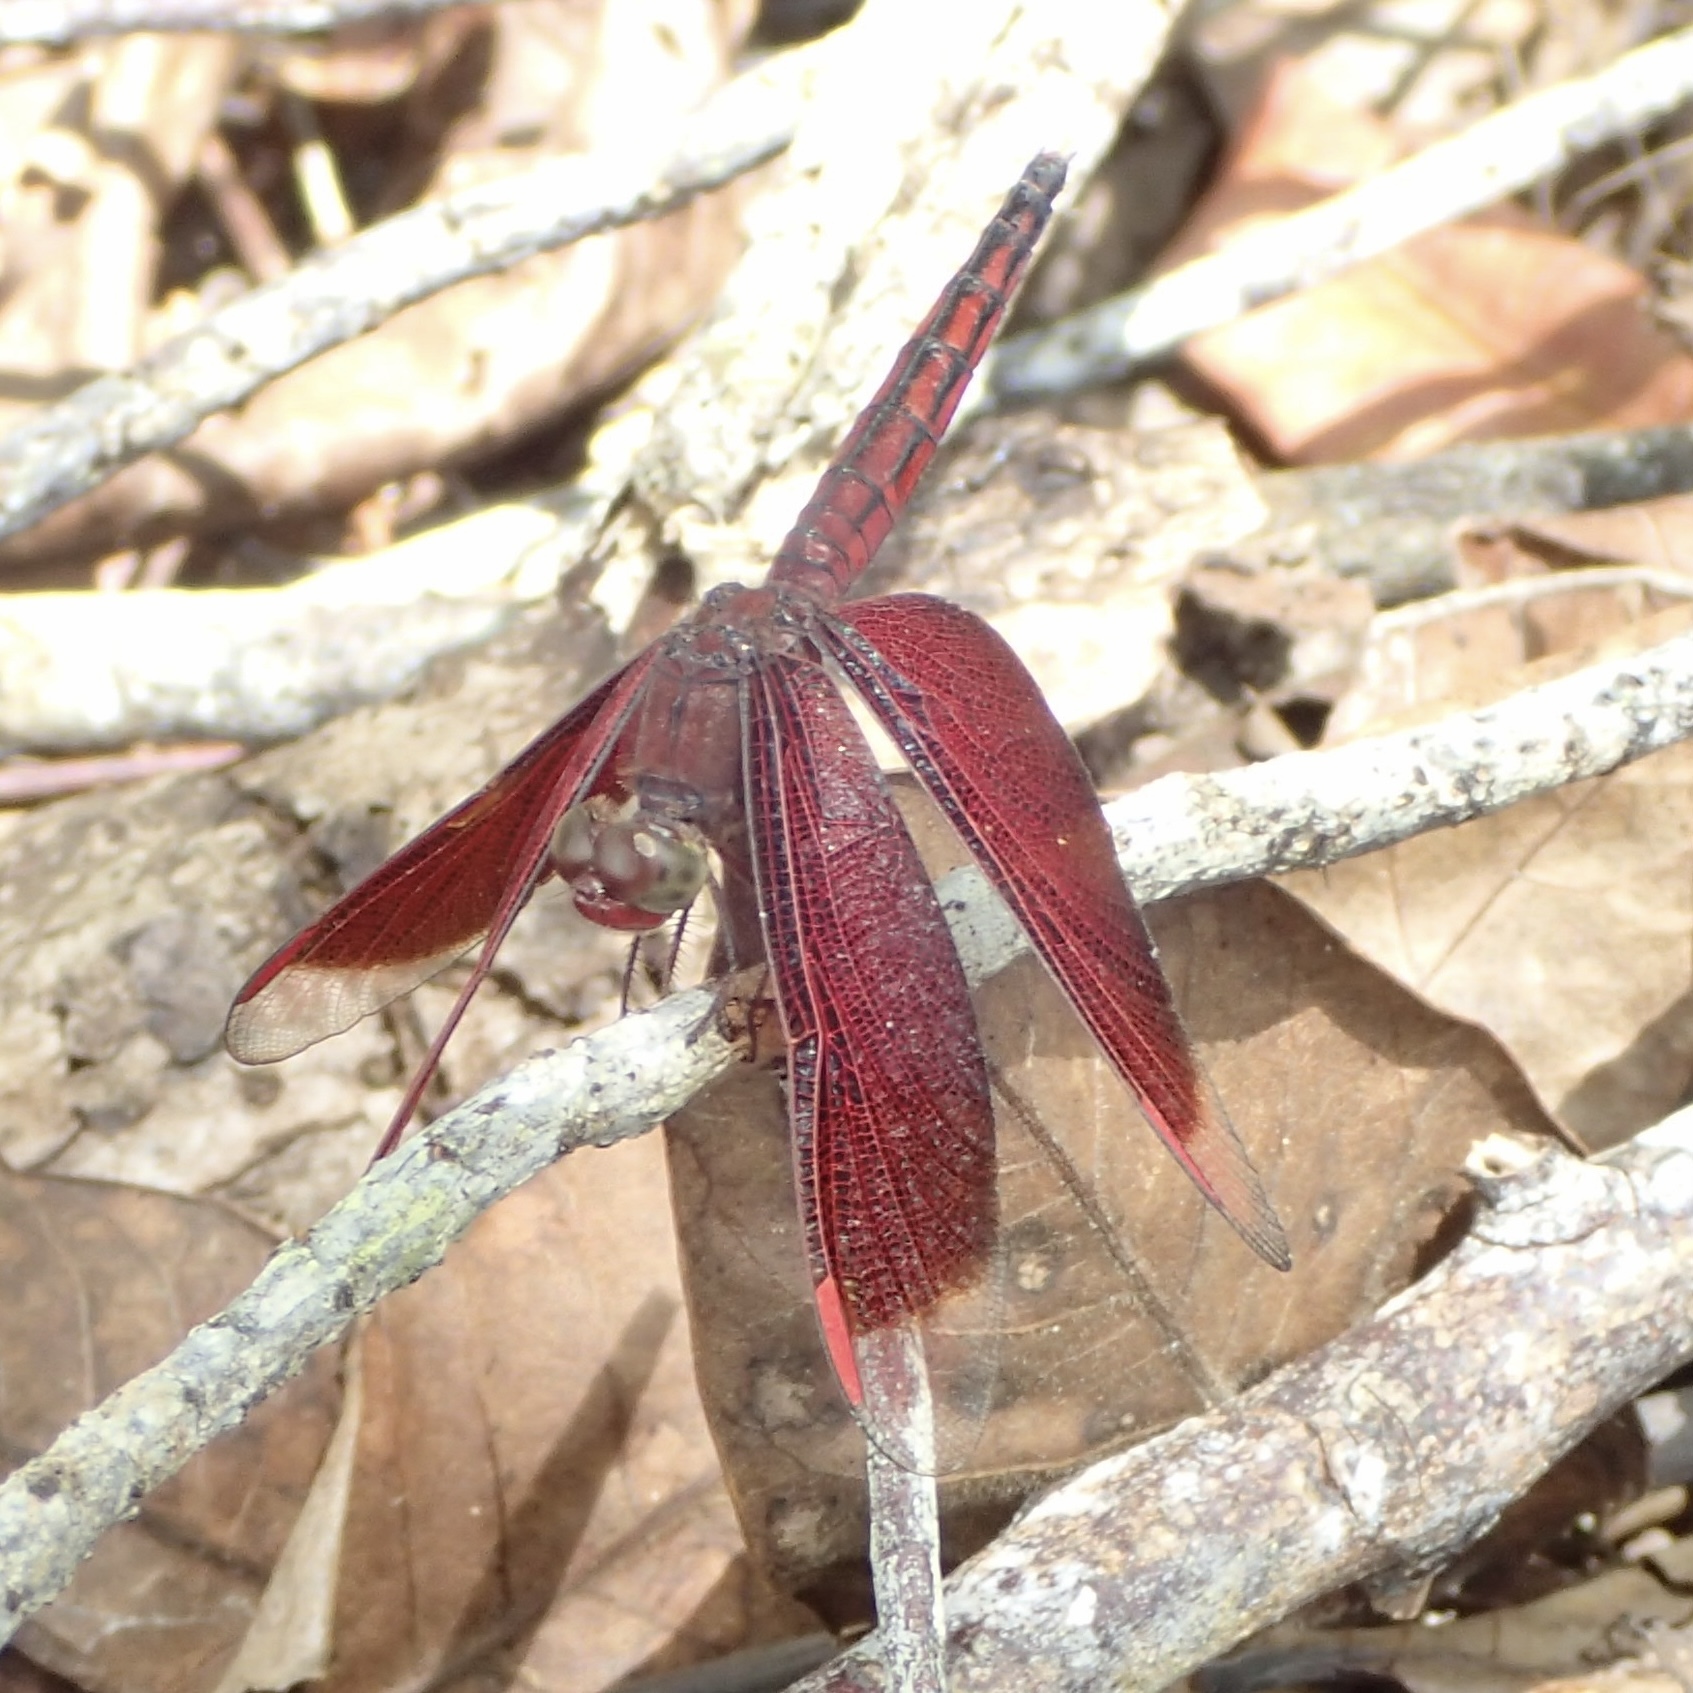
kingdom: Animalia
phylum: Arthropoda
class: Insecta
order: Odonata
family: Libellulidae
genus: Neurothemis
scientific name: Neurothemis stigmatizans
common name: Painted grasshawk
